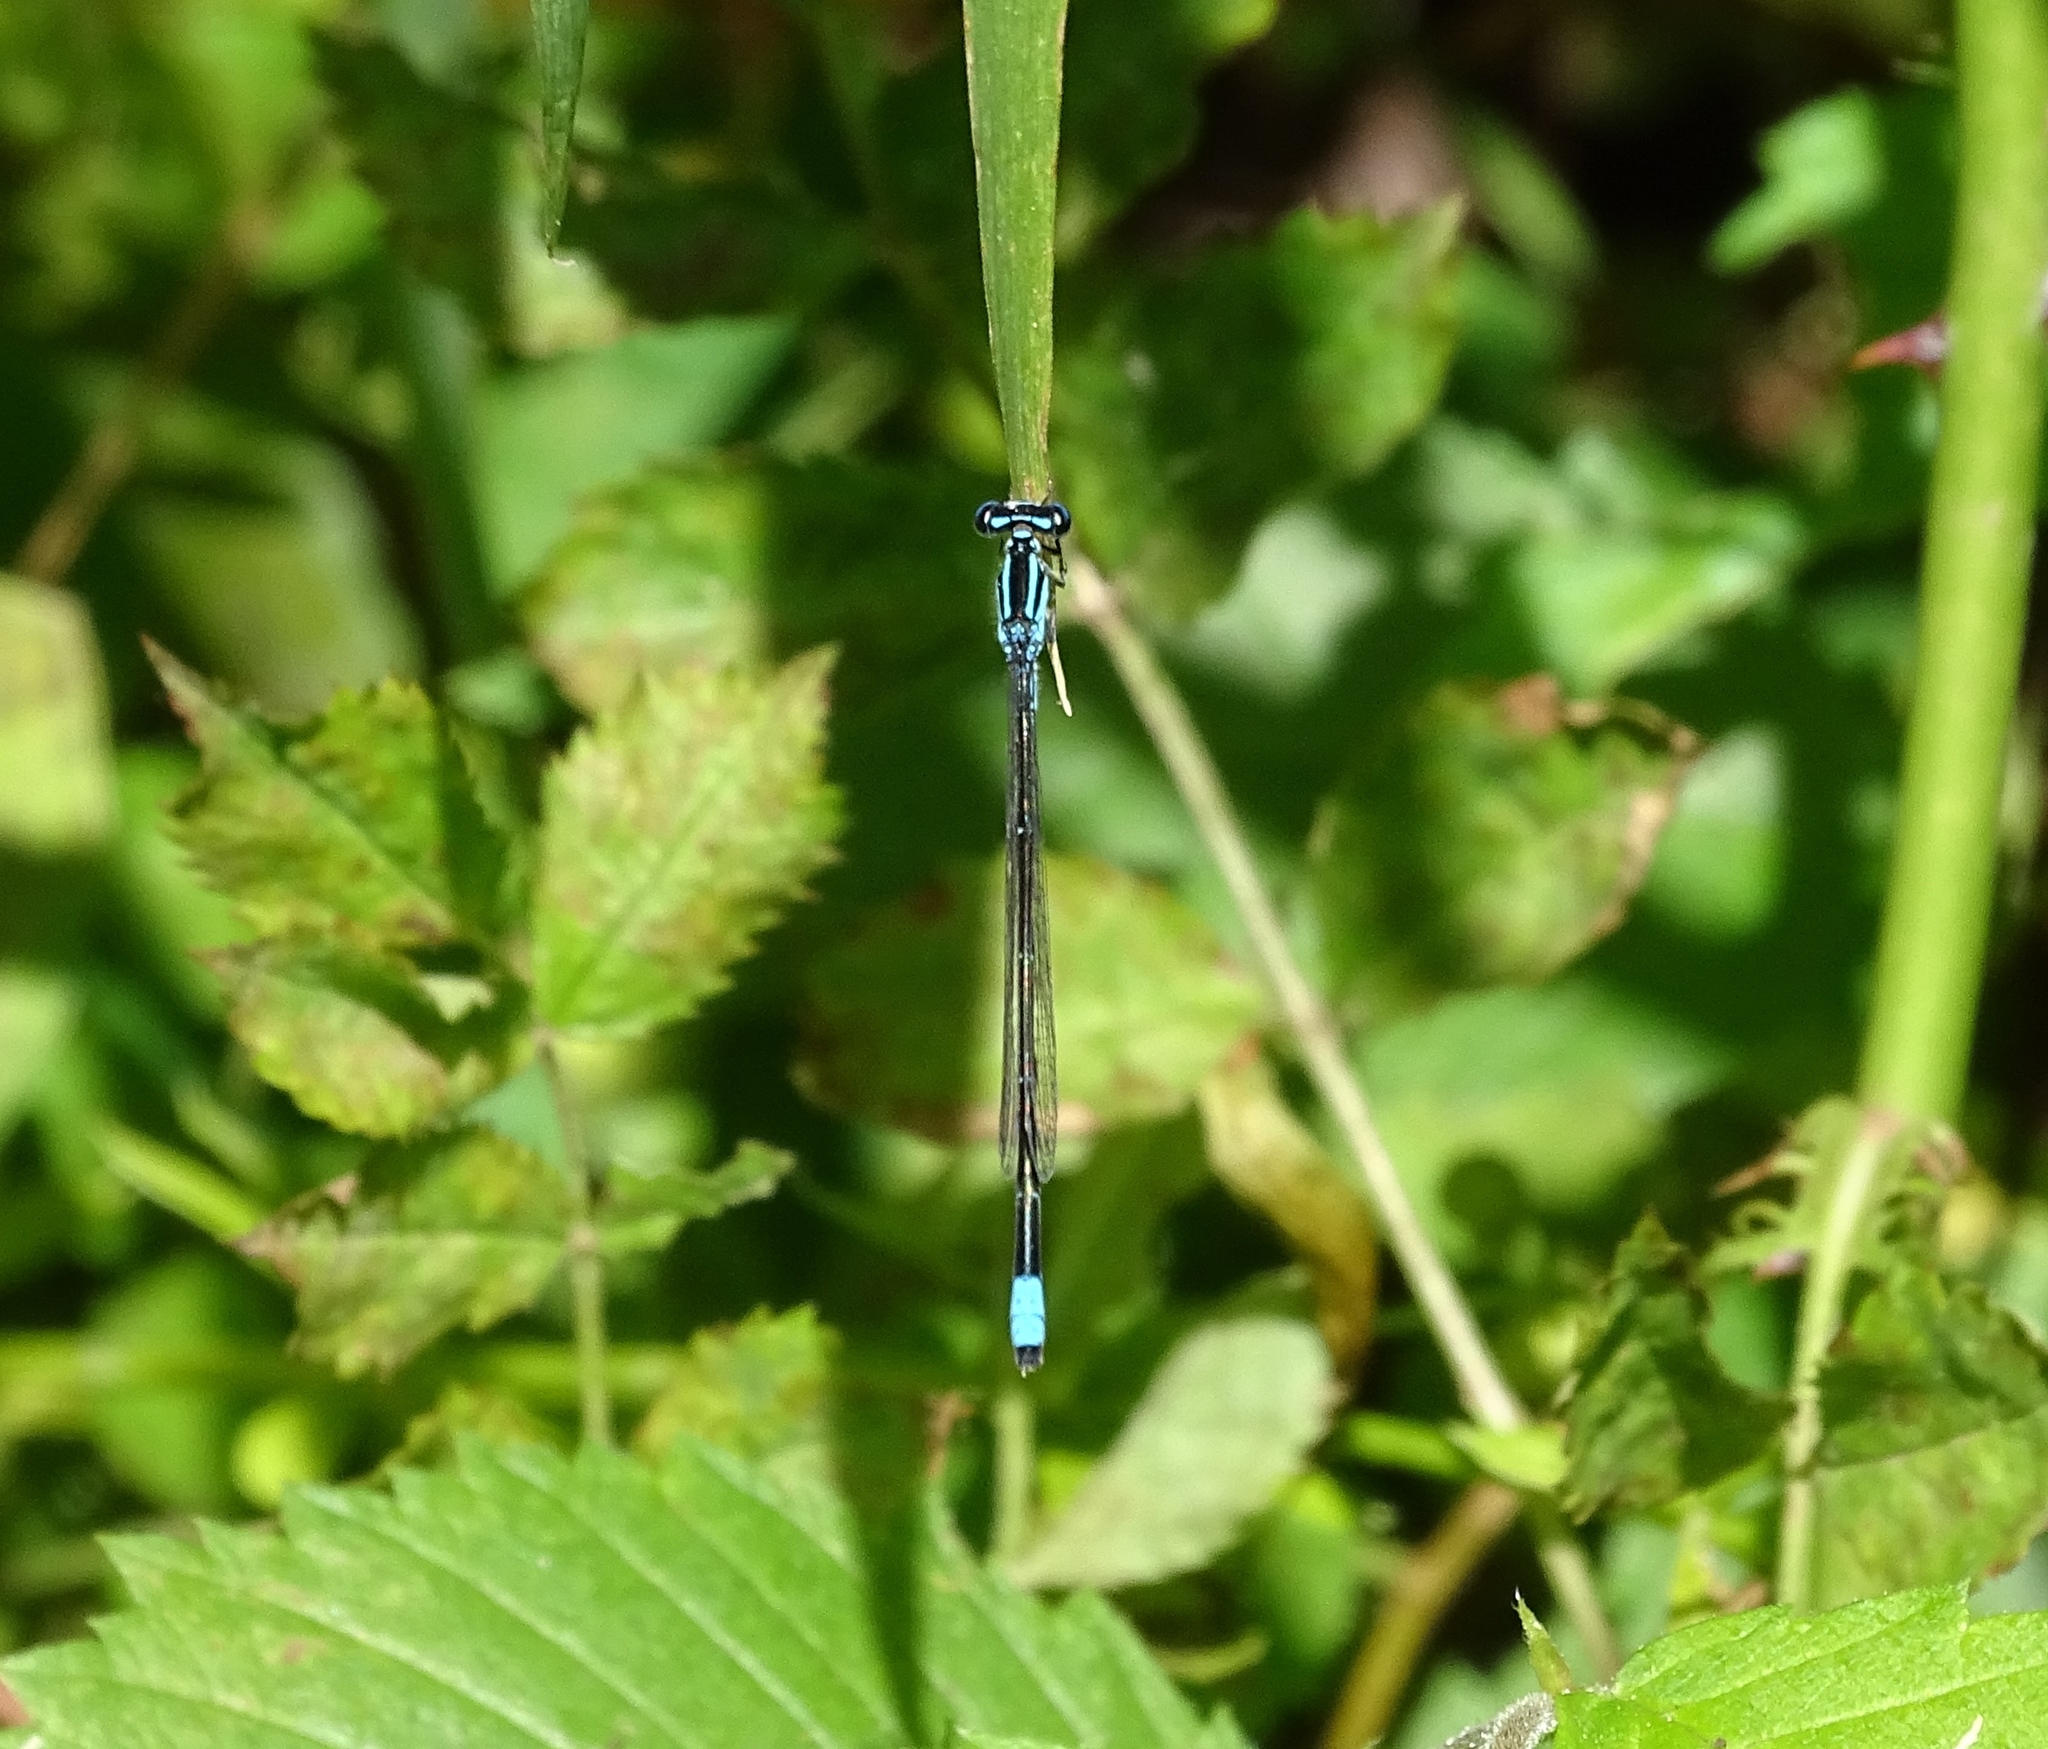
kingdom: Animalia
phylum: Arthropoda
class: Insecta
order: Odonata
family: Coenagrionidae
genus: Enallagma
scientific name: Enallagma divagans
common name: Turquoise bluet
